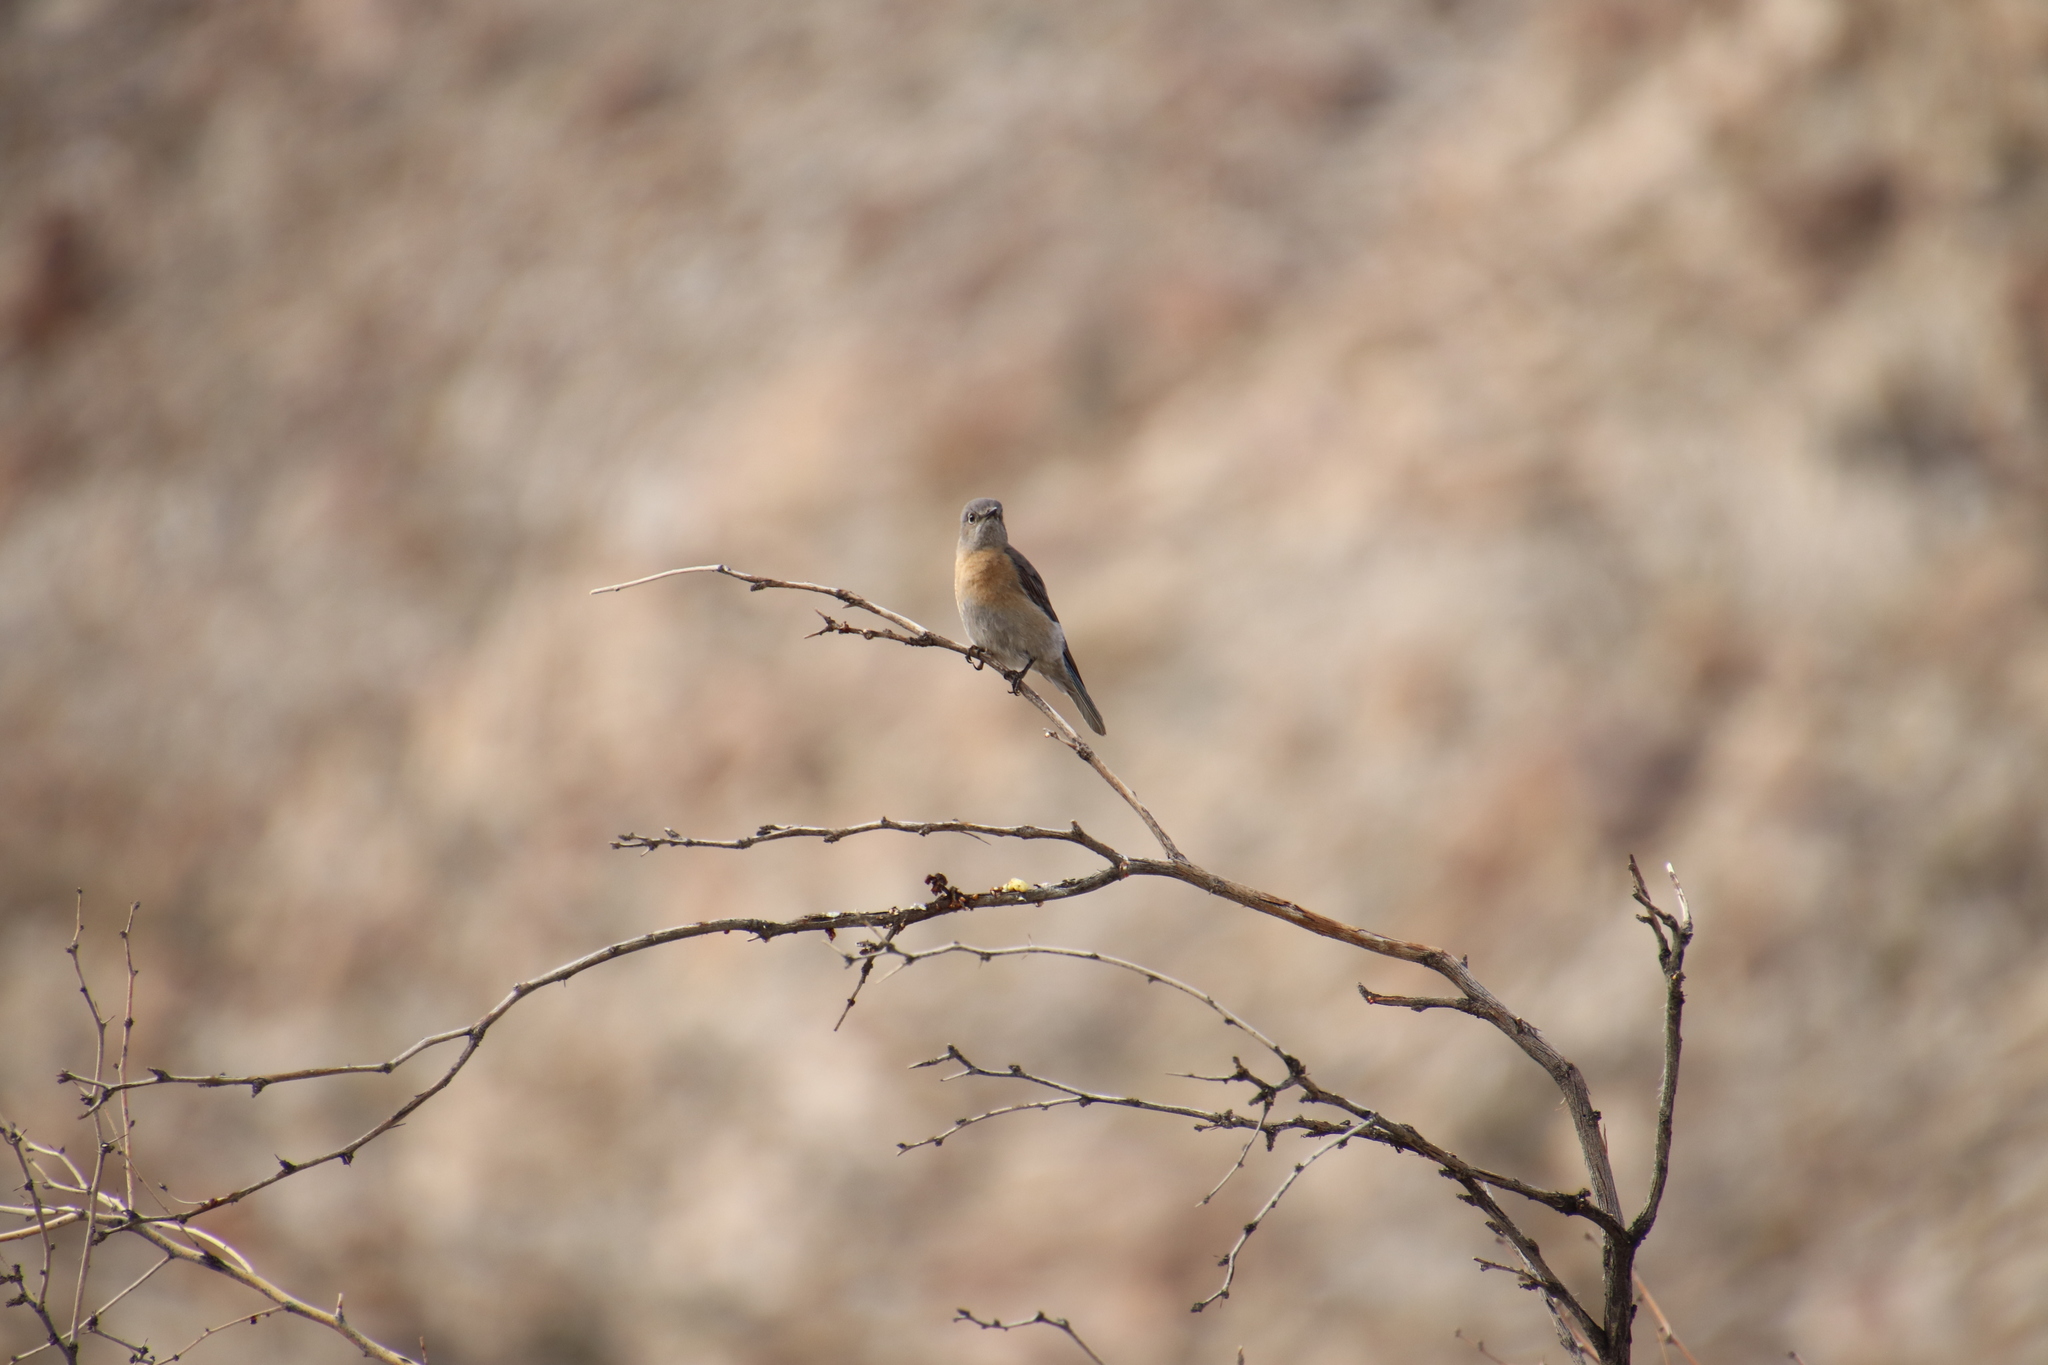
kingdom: Animalia
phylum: Chordata
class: Aves
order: Passeriformes
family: Turdidae
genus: Sialia
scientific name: Sialia mexicana
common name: Western bluebird
